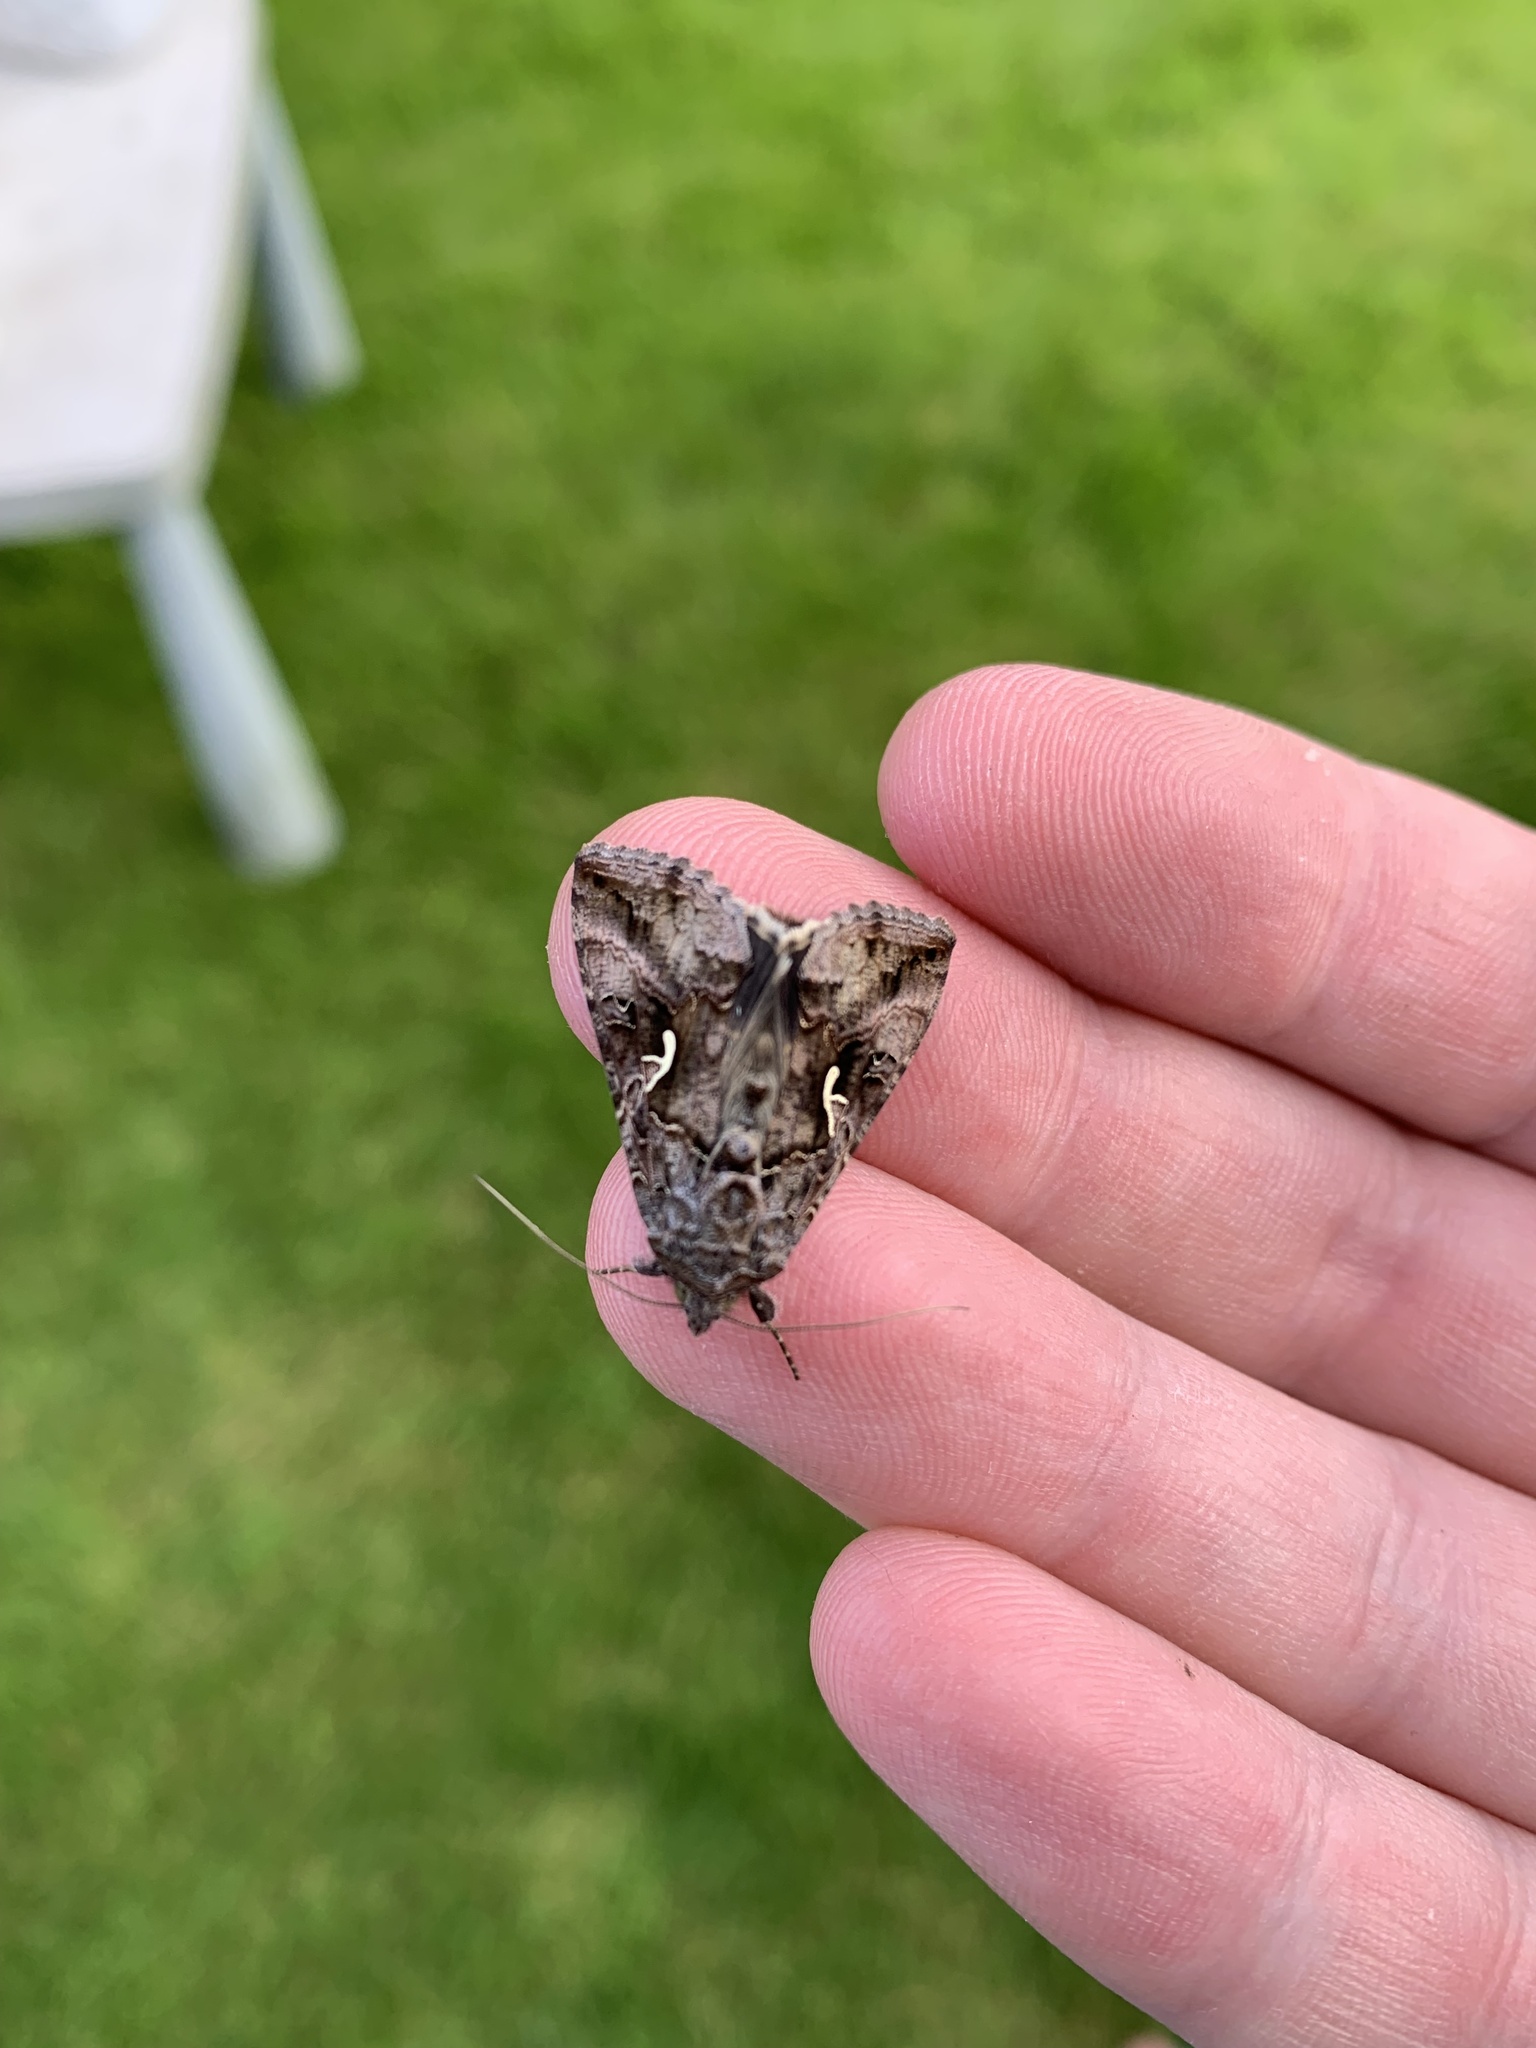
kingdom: Animalia
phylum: Arthropoda
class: Insecta
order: Lepidoptera
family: Noctuidae
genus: Autographa
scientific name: Autographa gamma
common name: Silver y
